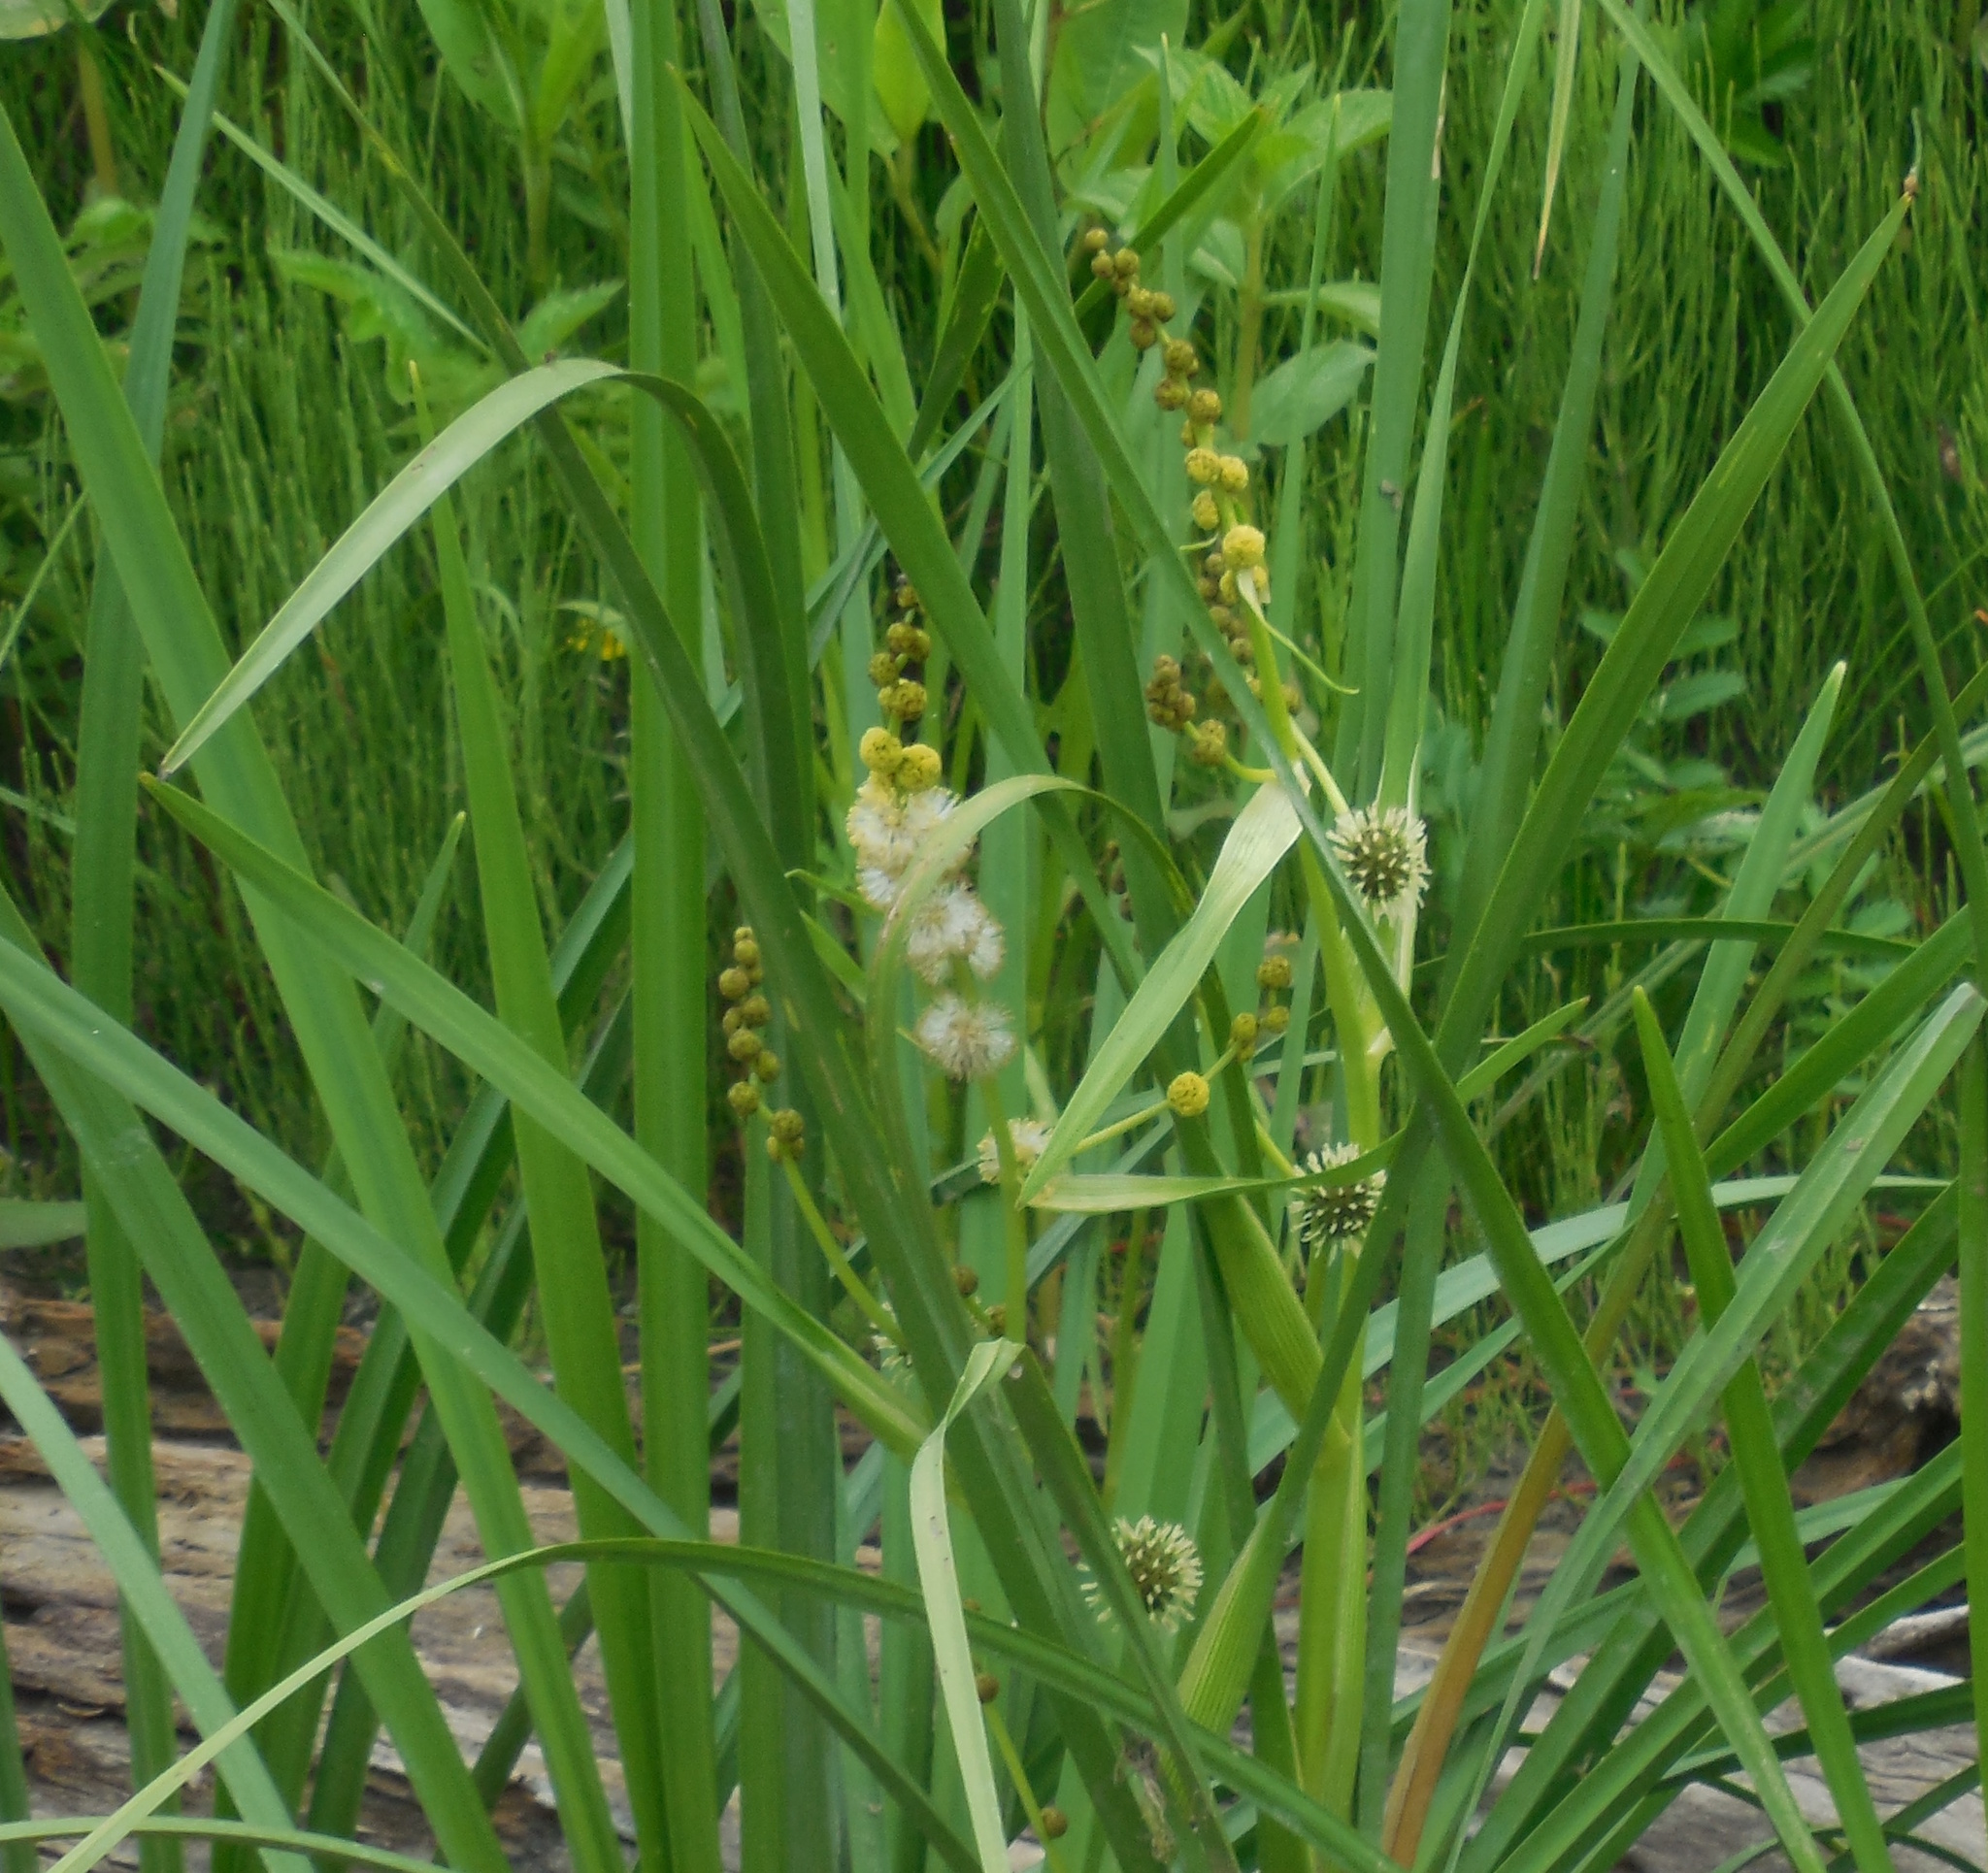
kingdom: Plantae
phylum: Tracheophyta
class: Liliopsida
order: Poales
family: Typhaceae
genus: Sparganium
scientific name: Sparganium eurycarpum
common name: Broad-fruited burreed
